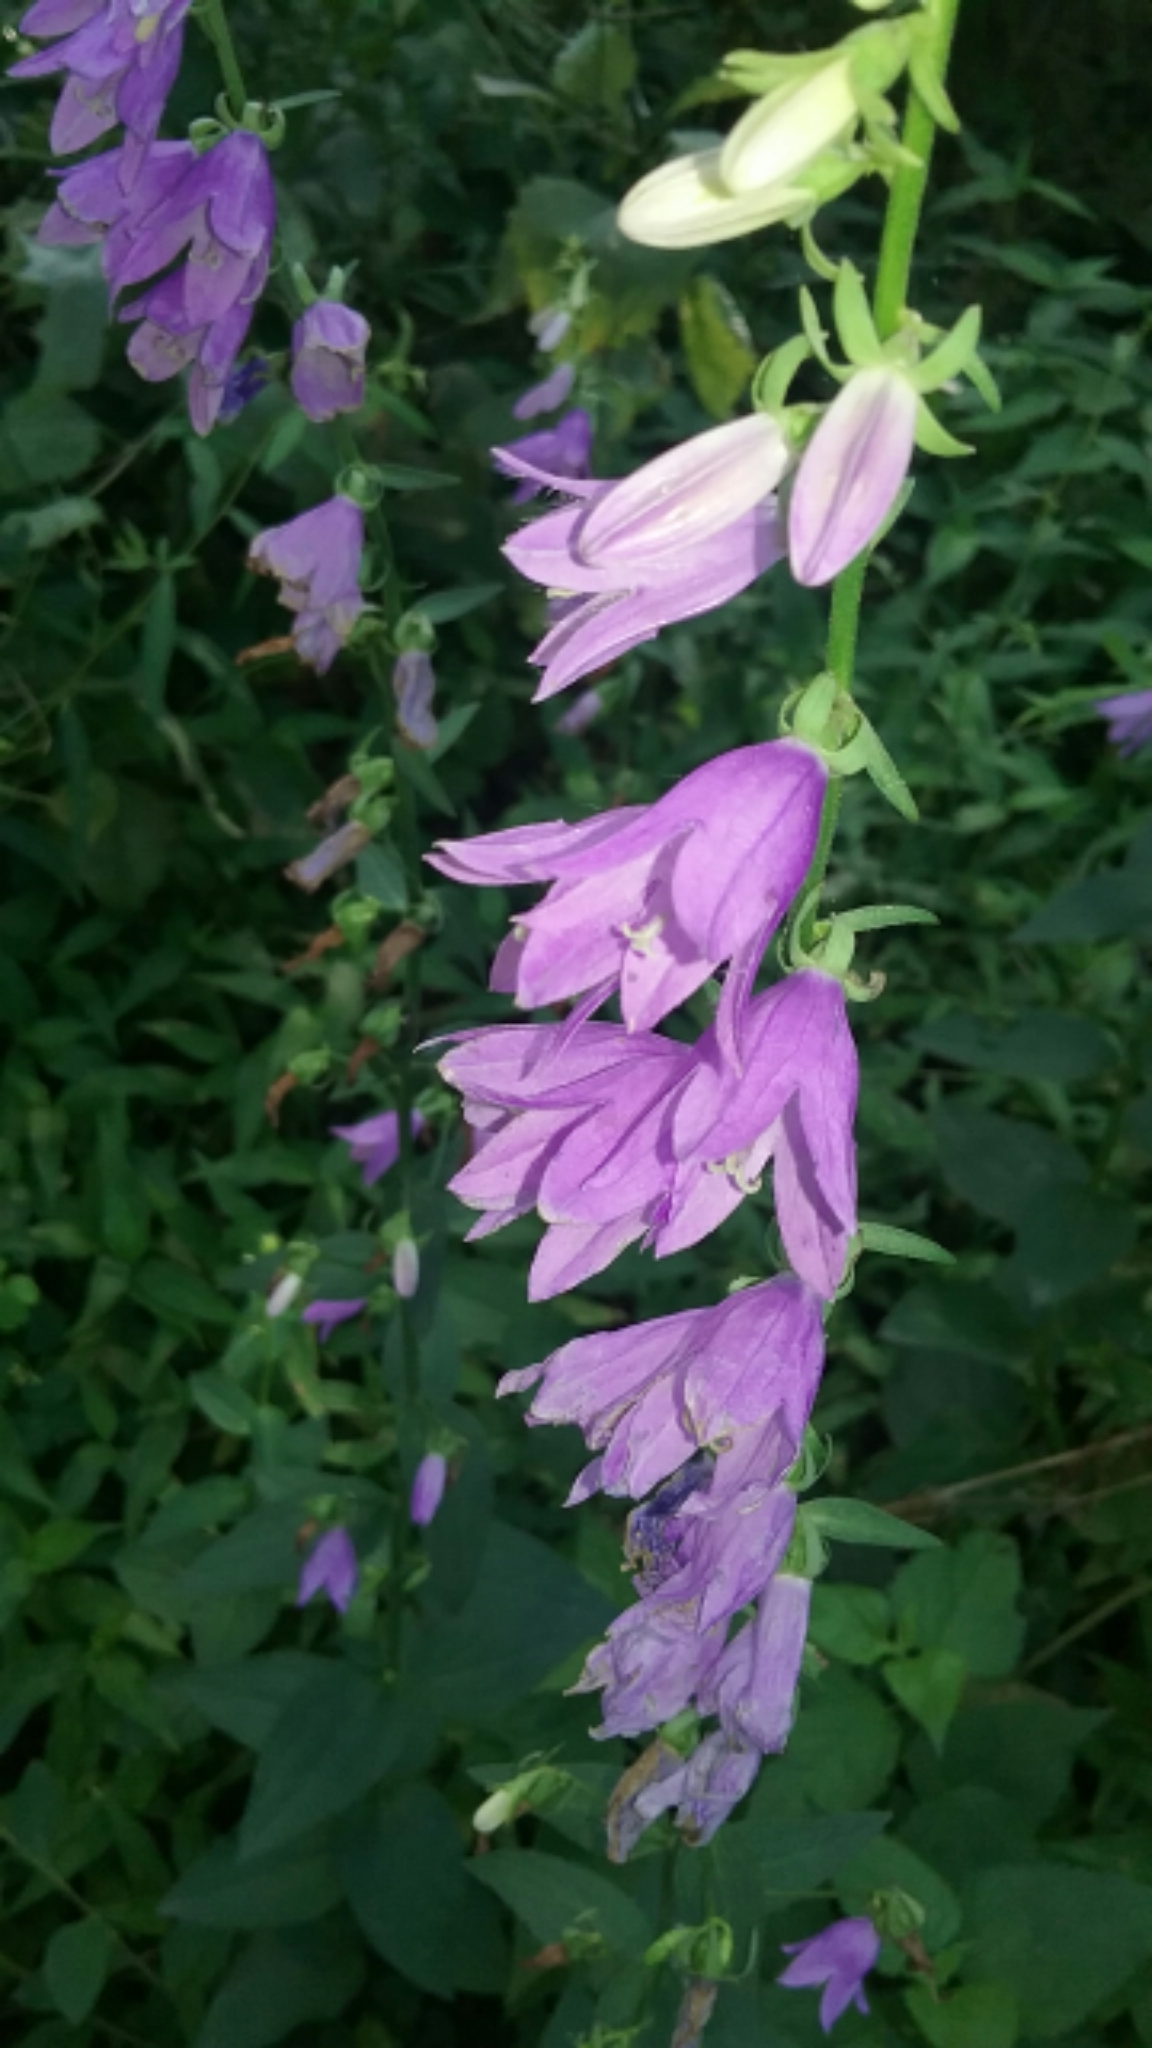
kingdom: Plantae
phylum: Tracheophyta
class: Magnoliopsida
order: Asterales
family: Campanulaceae
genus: Campanula
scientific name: Campanula rapunculoides
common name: Creeping bellflower
